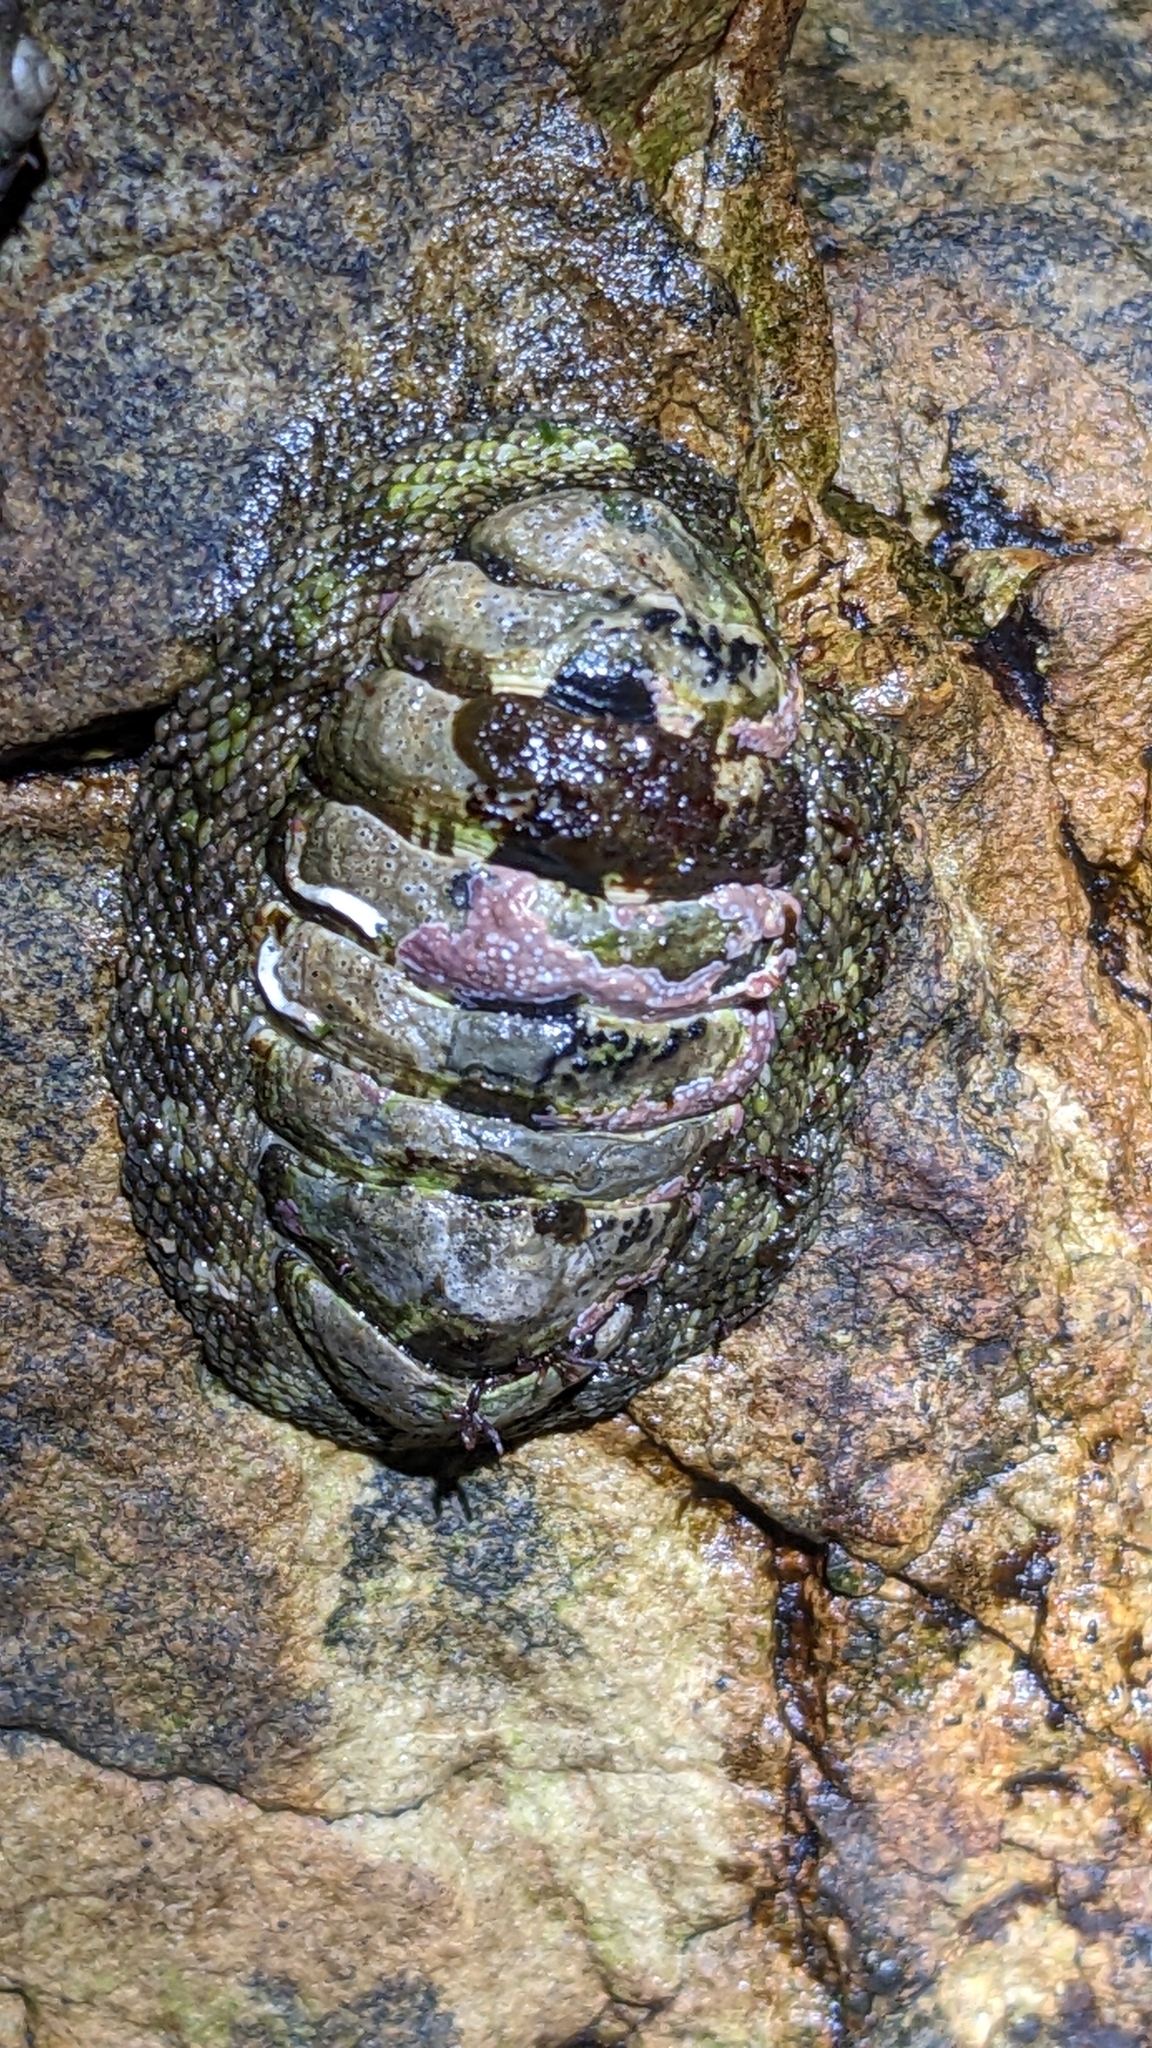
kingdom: Animalia
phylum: Mollusca
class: Polyplacophora
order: Chitonida
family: Chitonidae
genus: Sypharochiton
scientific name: Sypharochiton pelliserpentis
